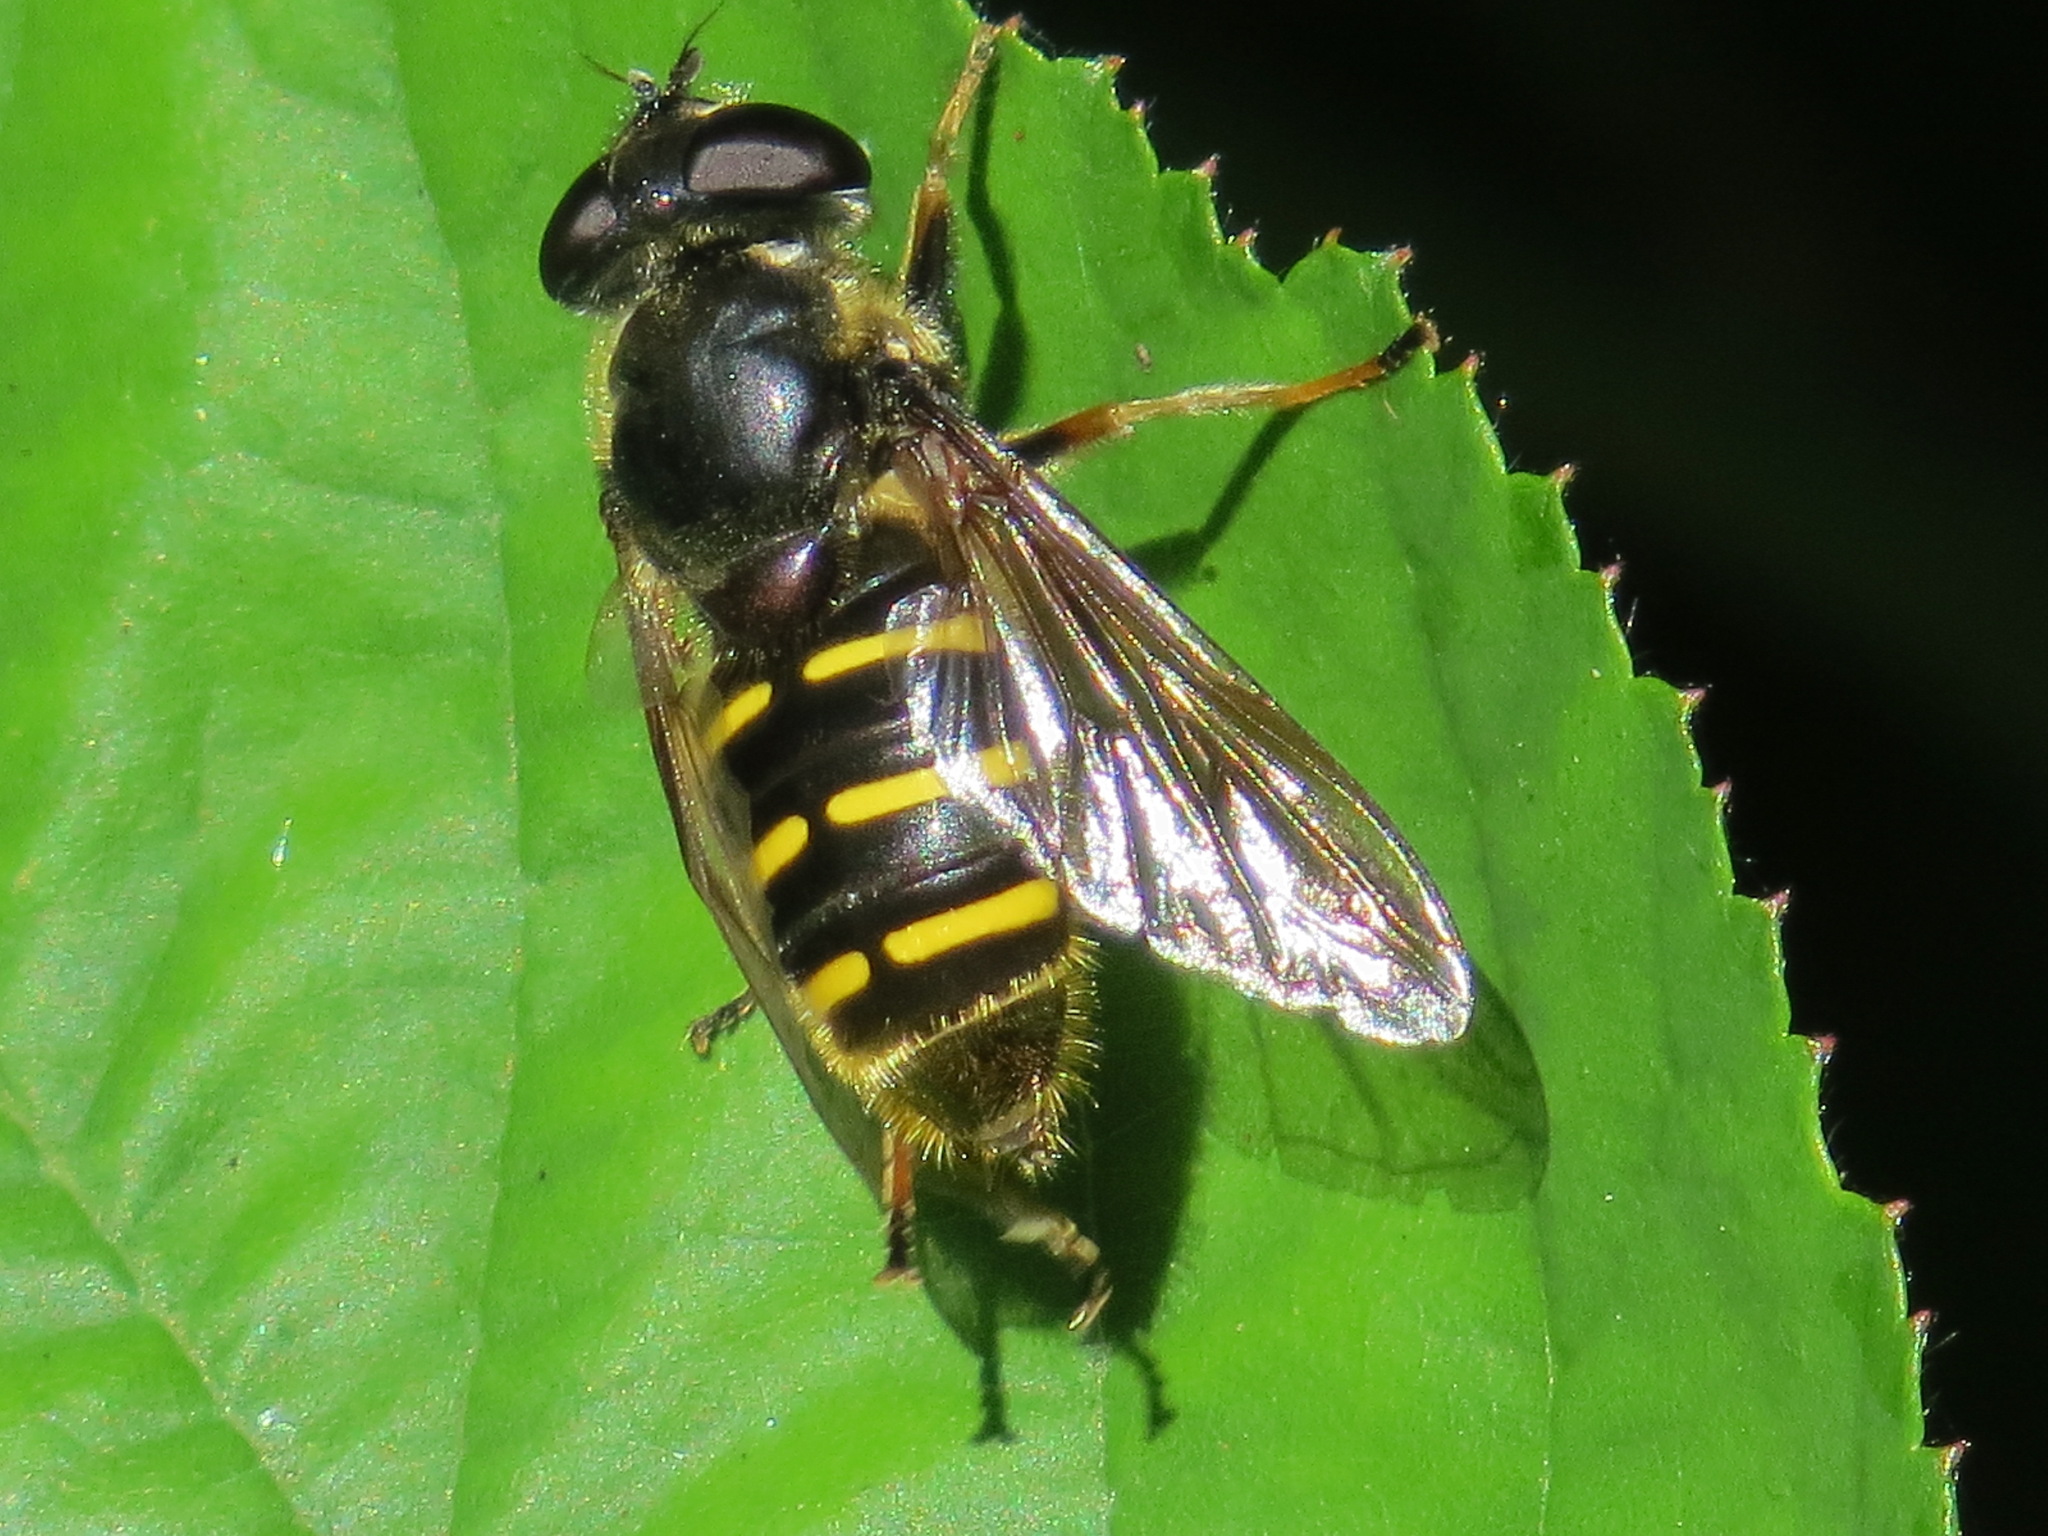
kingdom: Animalia
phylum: Arthropoda
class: Insecta
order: Diptera
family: Syrphidae
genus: Sericomyia
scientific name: Sericomyia chalcopyga
